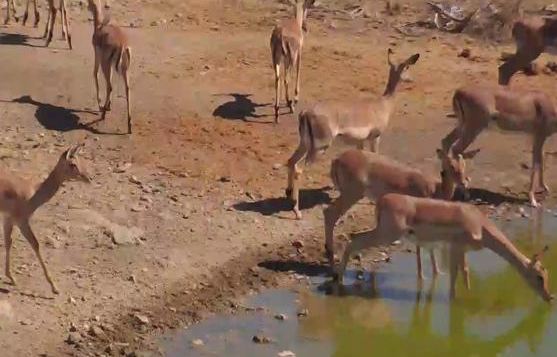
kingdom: Animalia
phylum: Chordata
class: Mammalia
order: Artiodactyla
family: Bovidae
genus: Aepyceros
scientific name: Aepyceros melampus
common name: Impala
